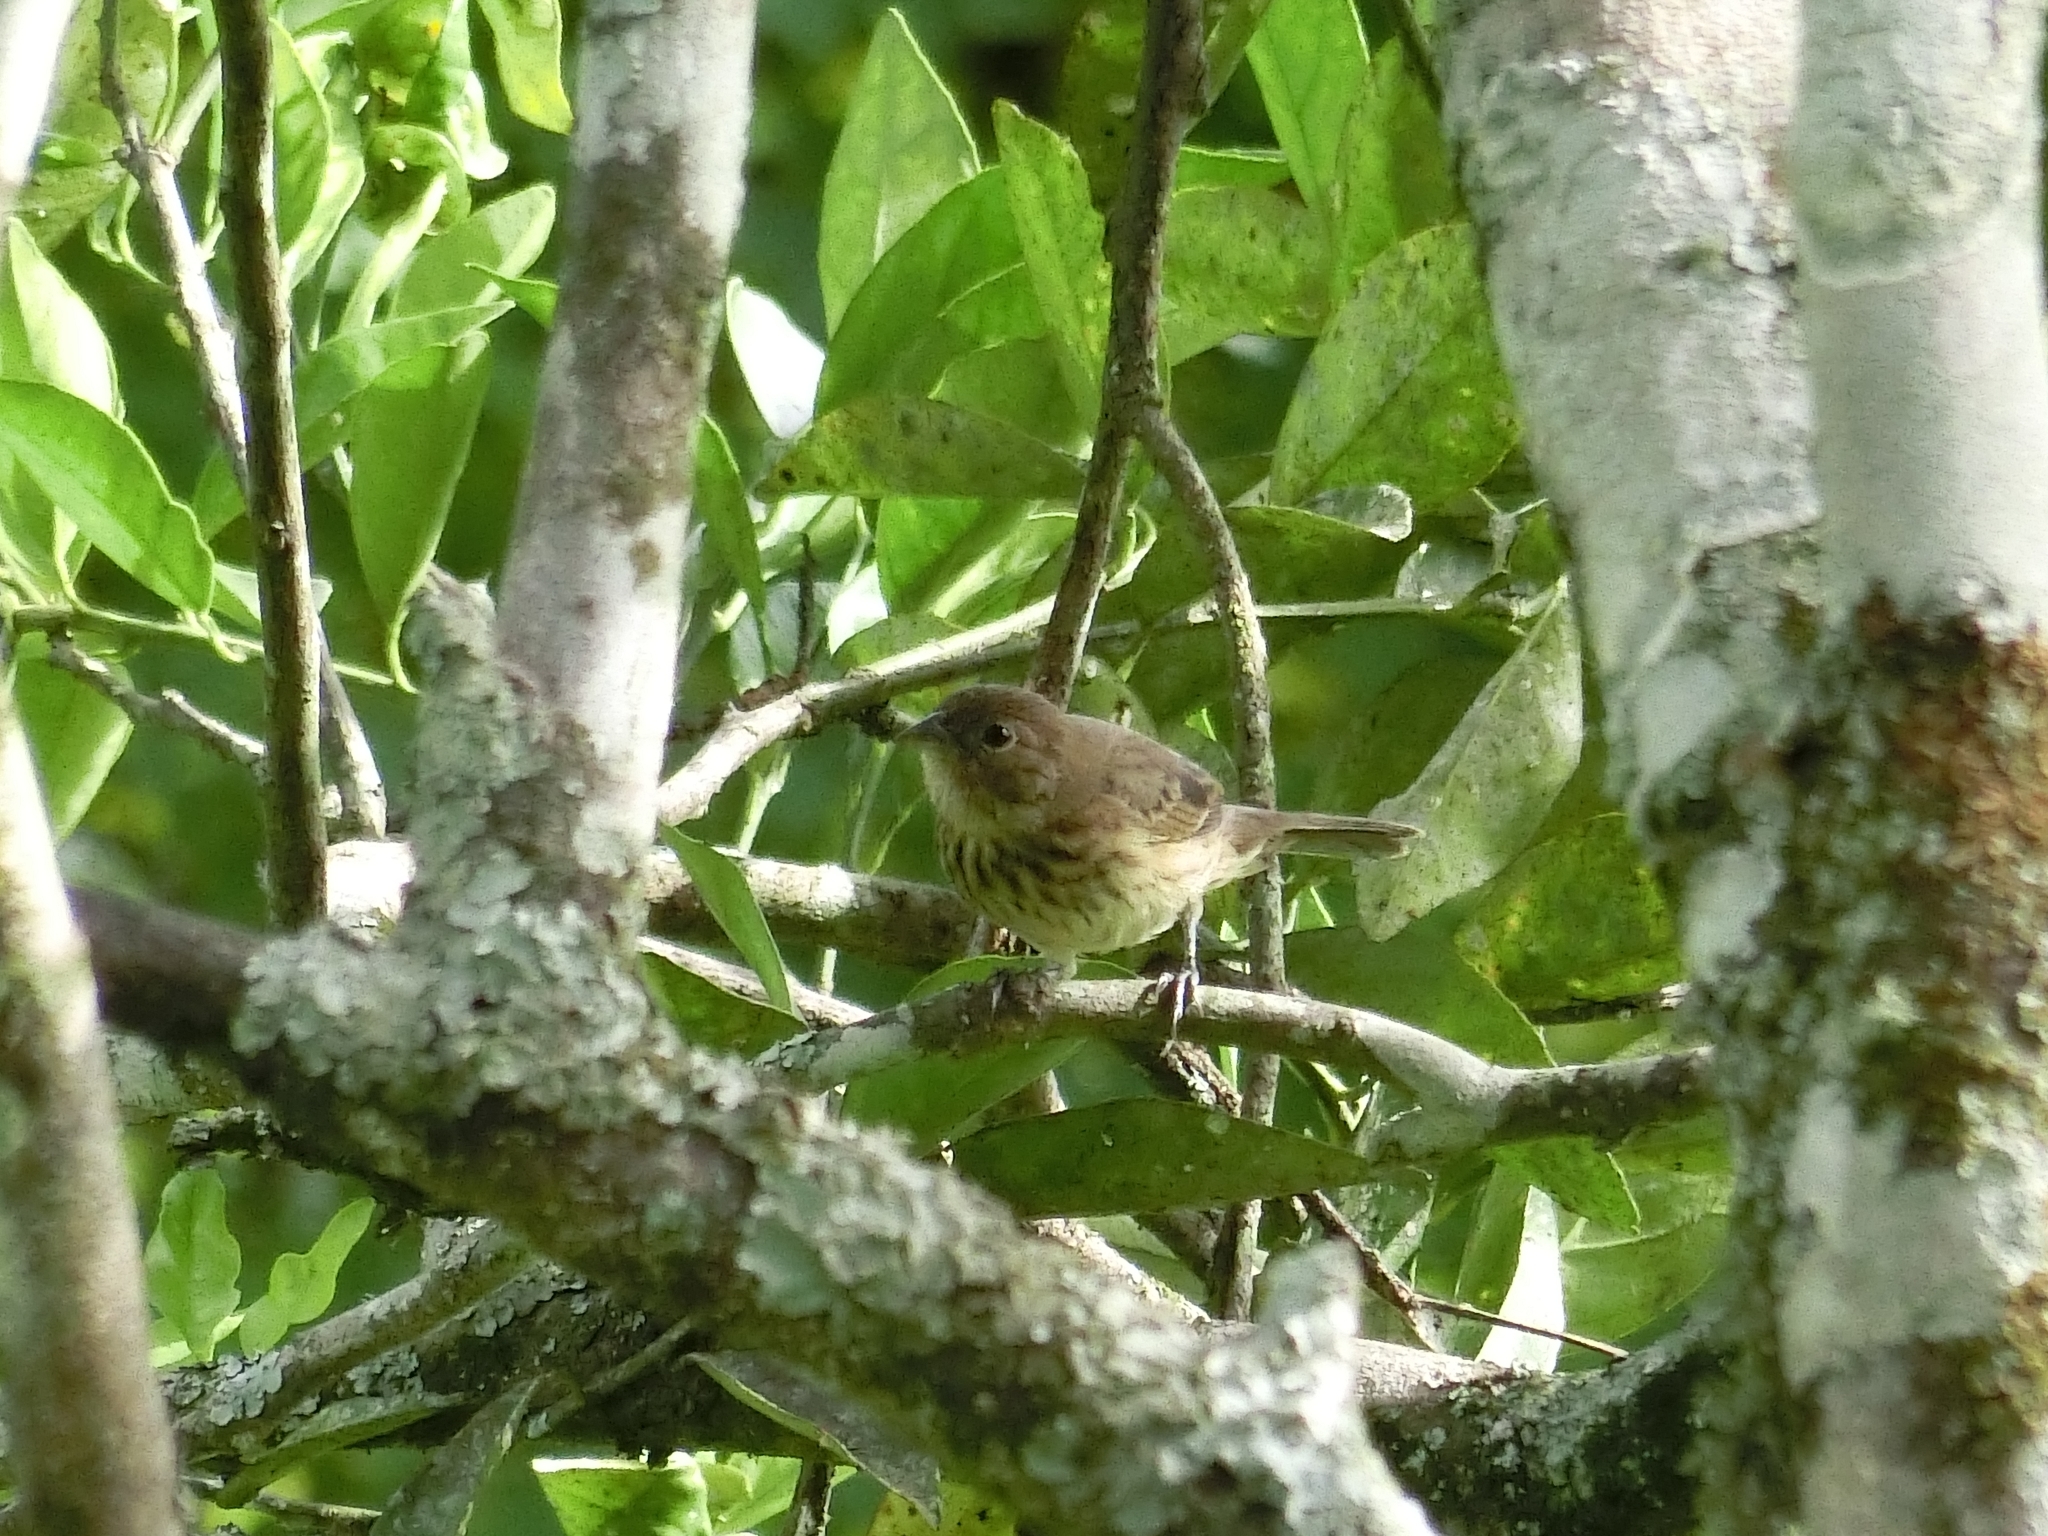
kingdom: Animalia
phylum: Chordata
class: Aves
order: Passeriformes
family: Thraupidae
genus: Volatinia
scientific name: Volatinia jacarina
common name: Blue-black grassquit
